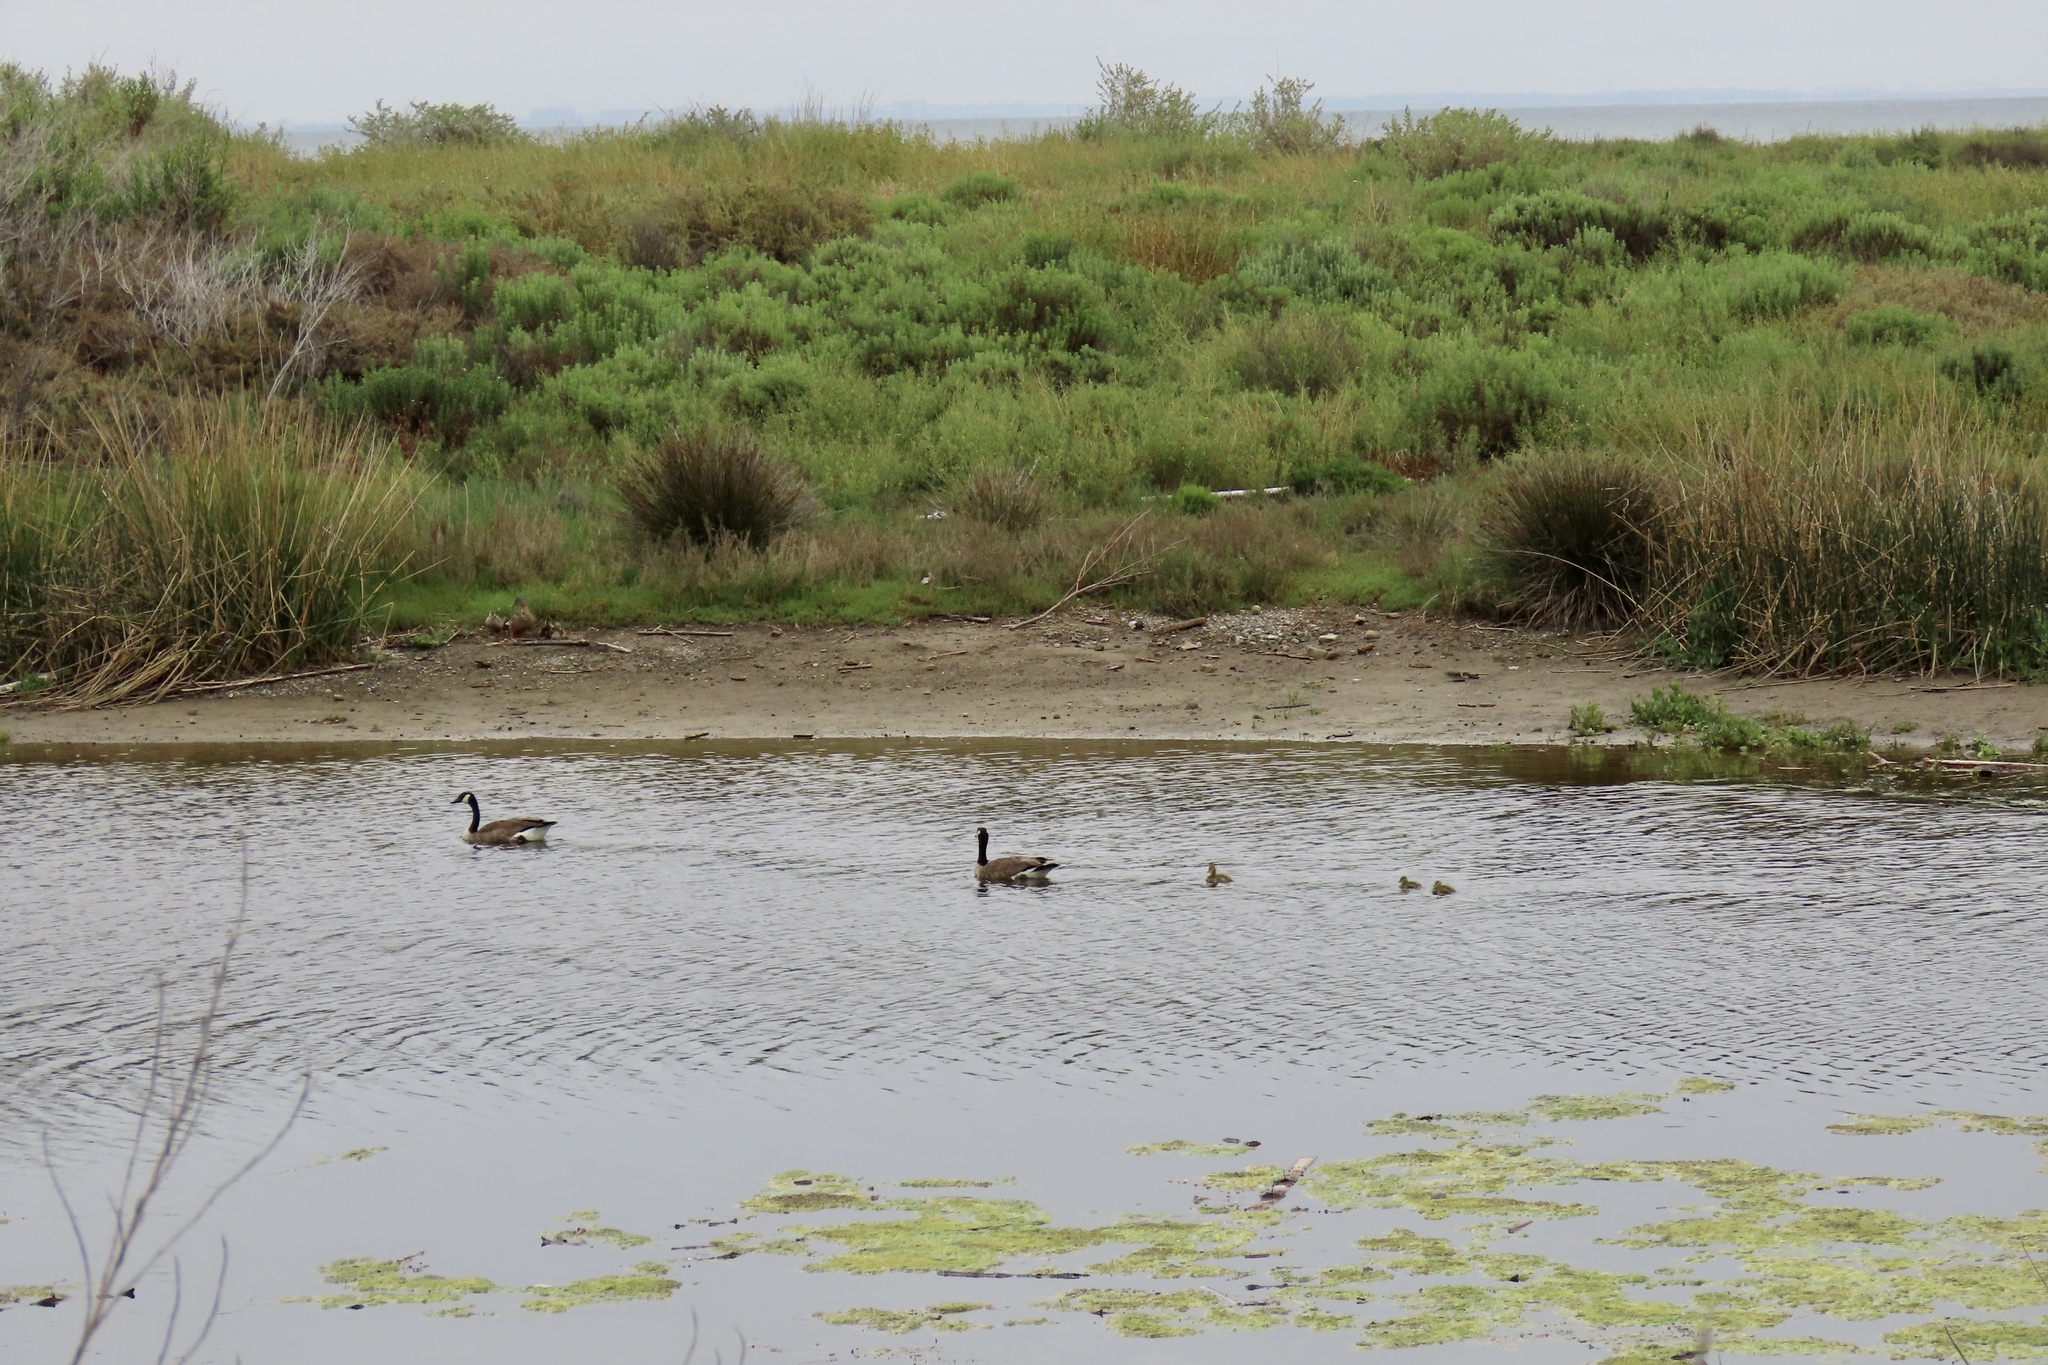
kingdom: Animalia
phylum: Chordata
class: Aves
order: Anseriformes
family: Anatidae
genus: Branta
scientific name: Branta canadensis
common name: Canada goose
